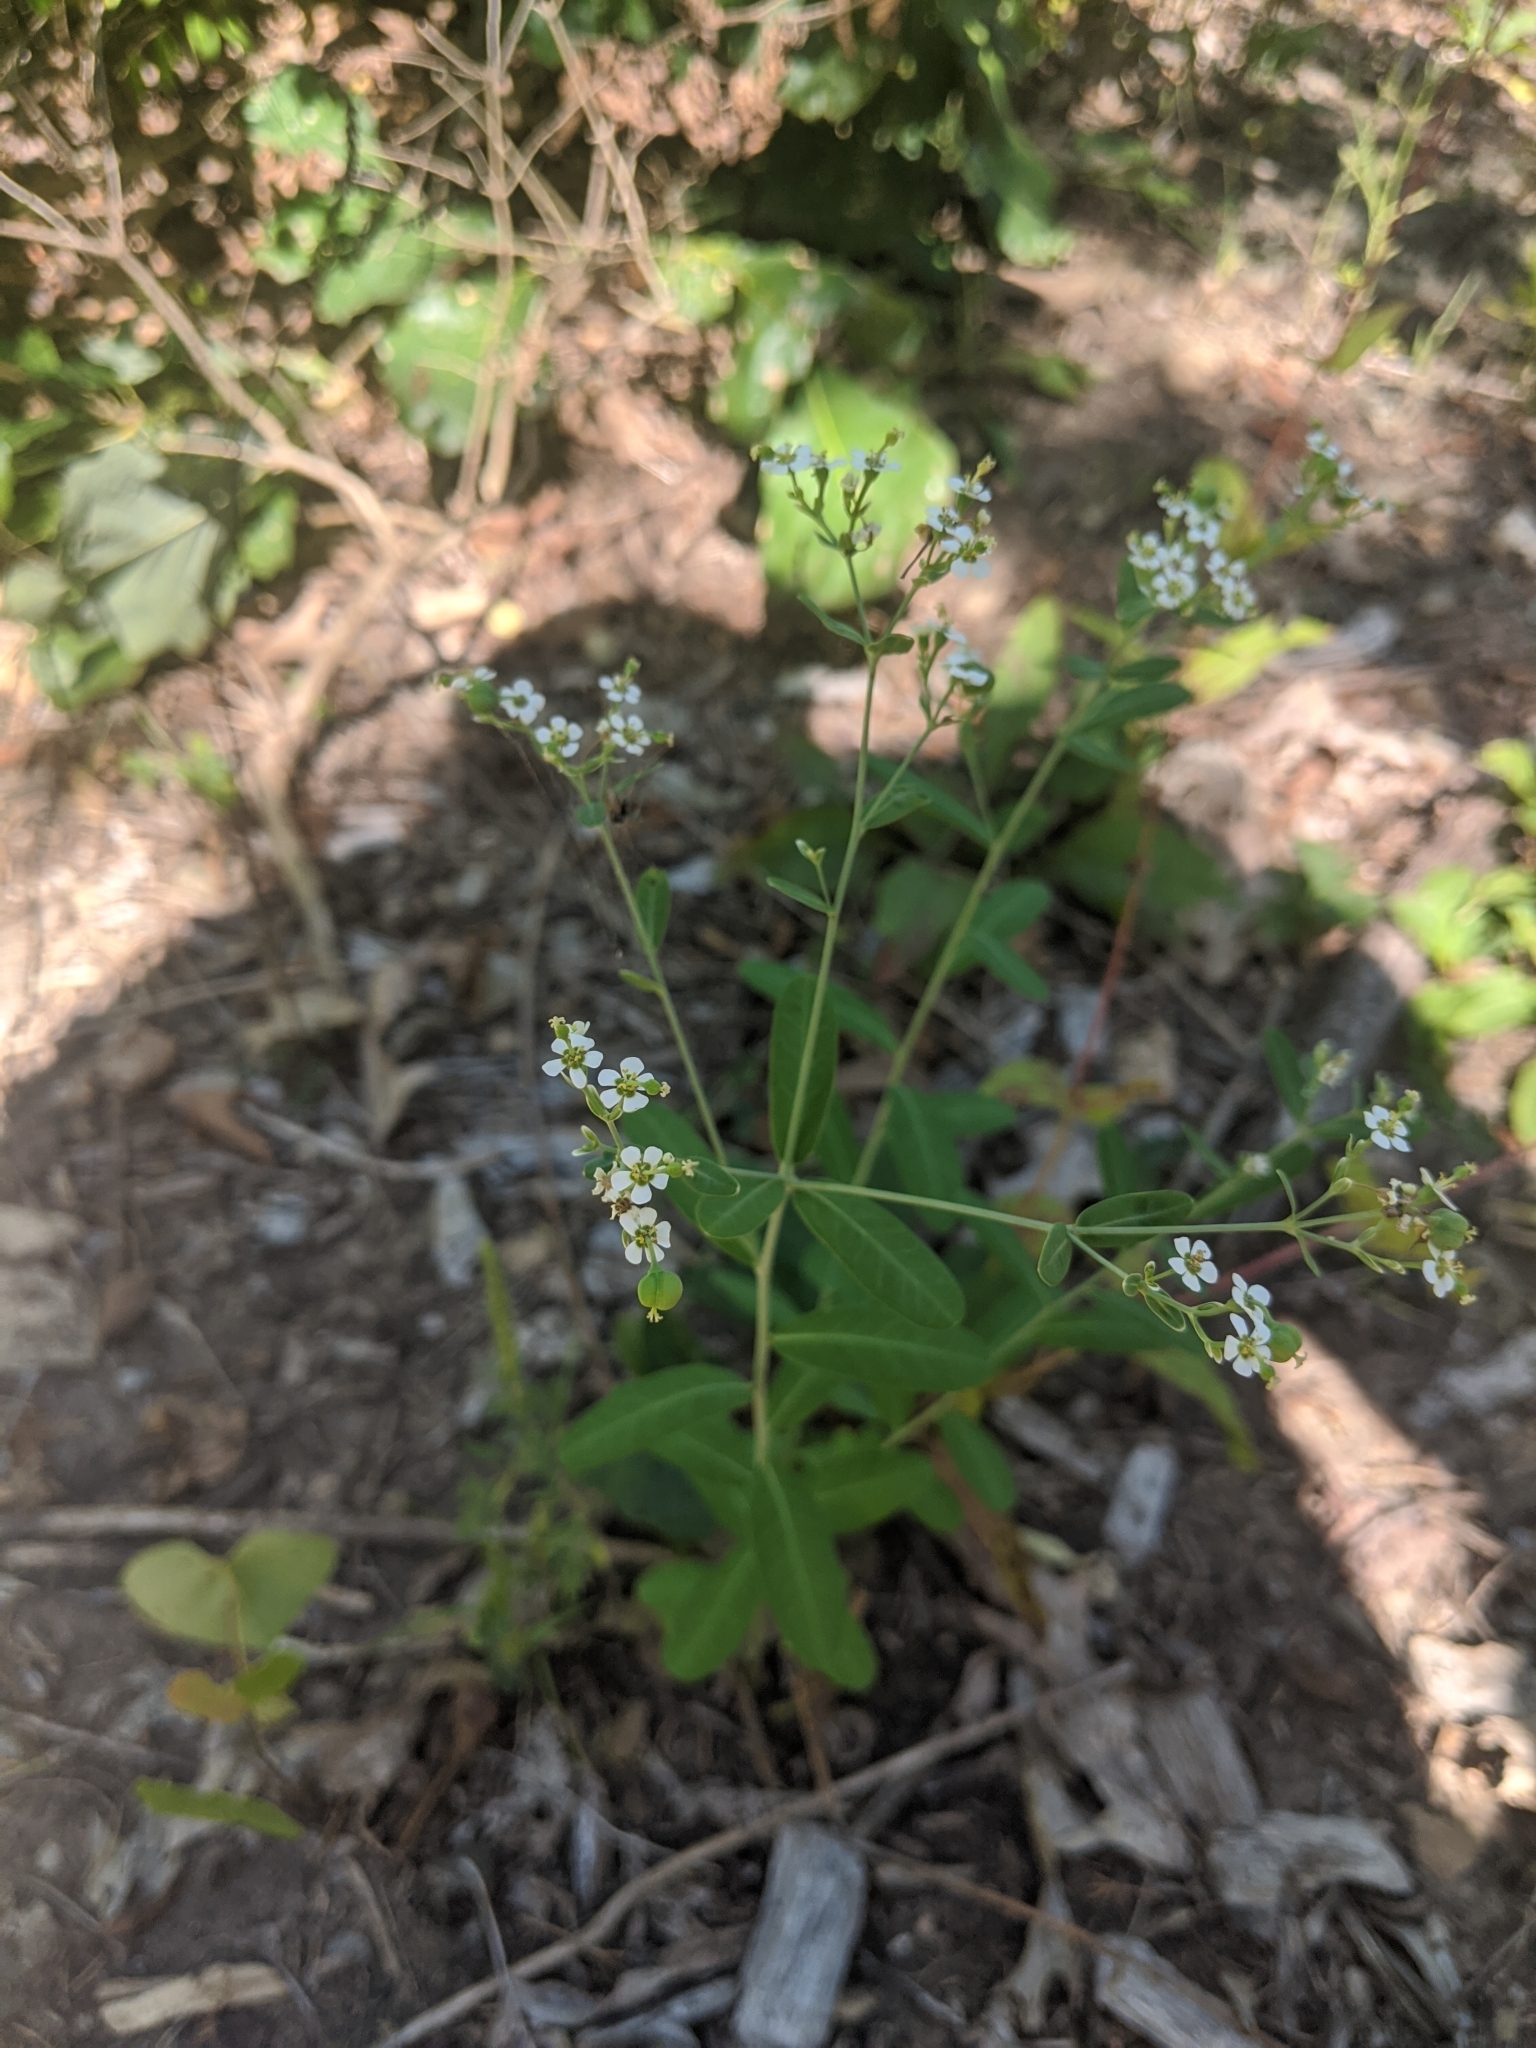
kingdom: Plantae
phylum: Tracheophyta
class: Magnoliopsida
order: Malpighiales
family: Euphorbiaceae
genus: Euphorbia
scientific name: Euphorbia corollata
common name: Flowering spurge
